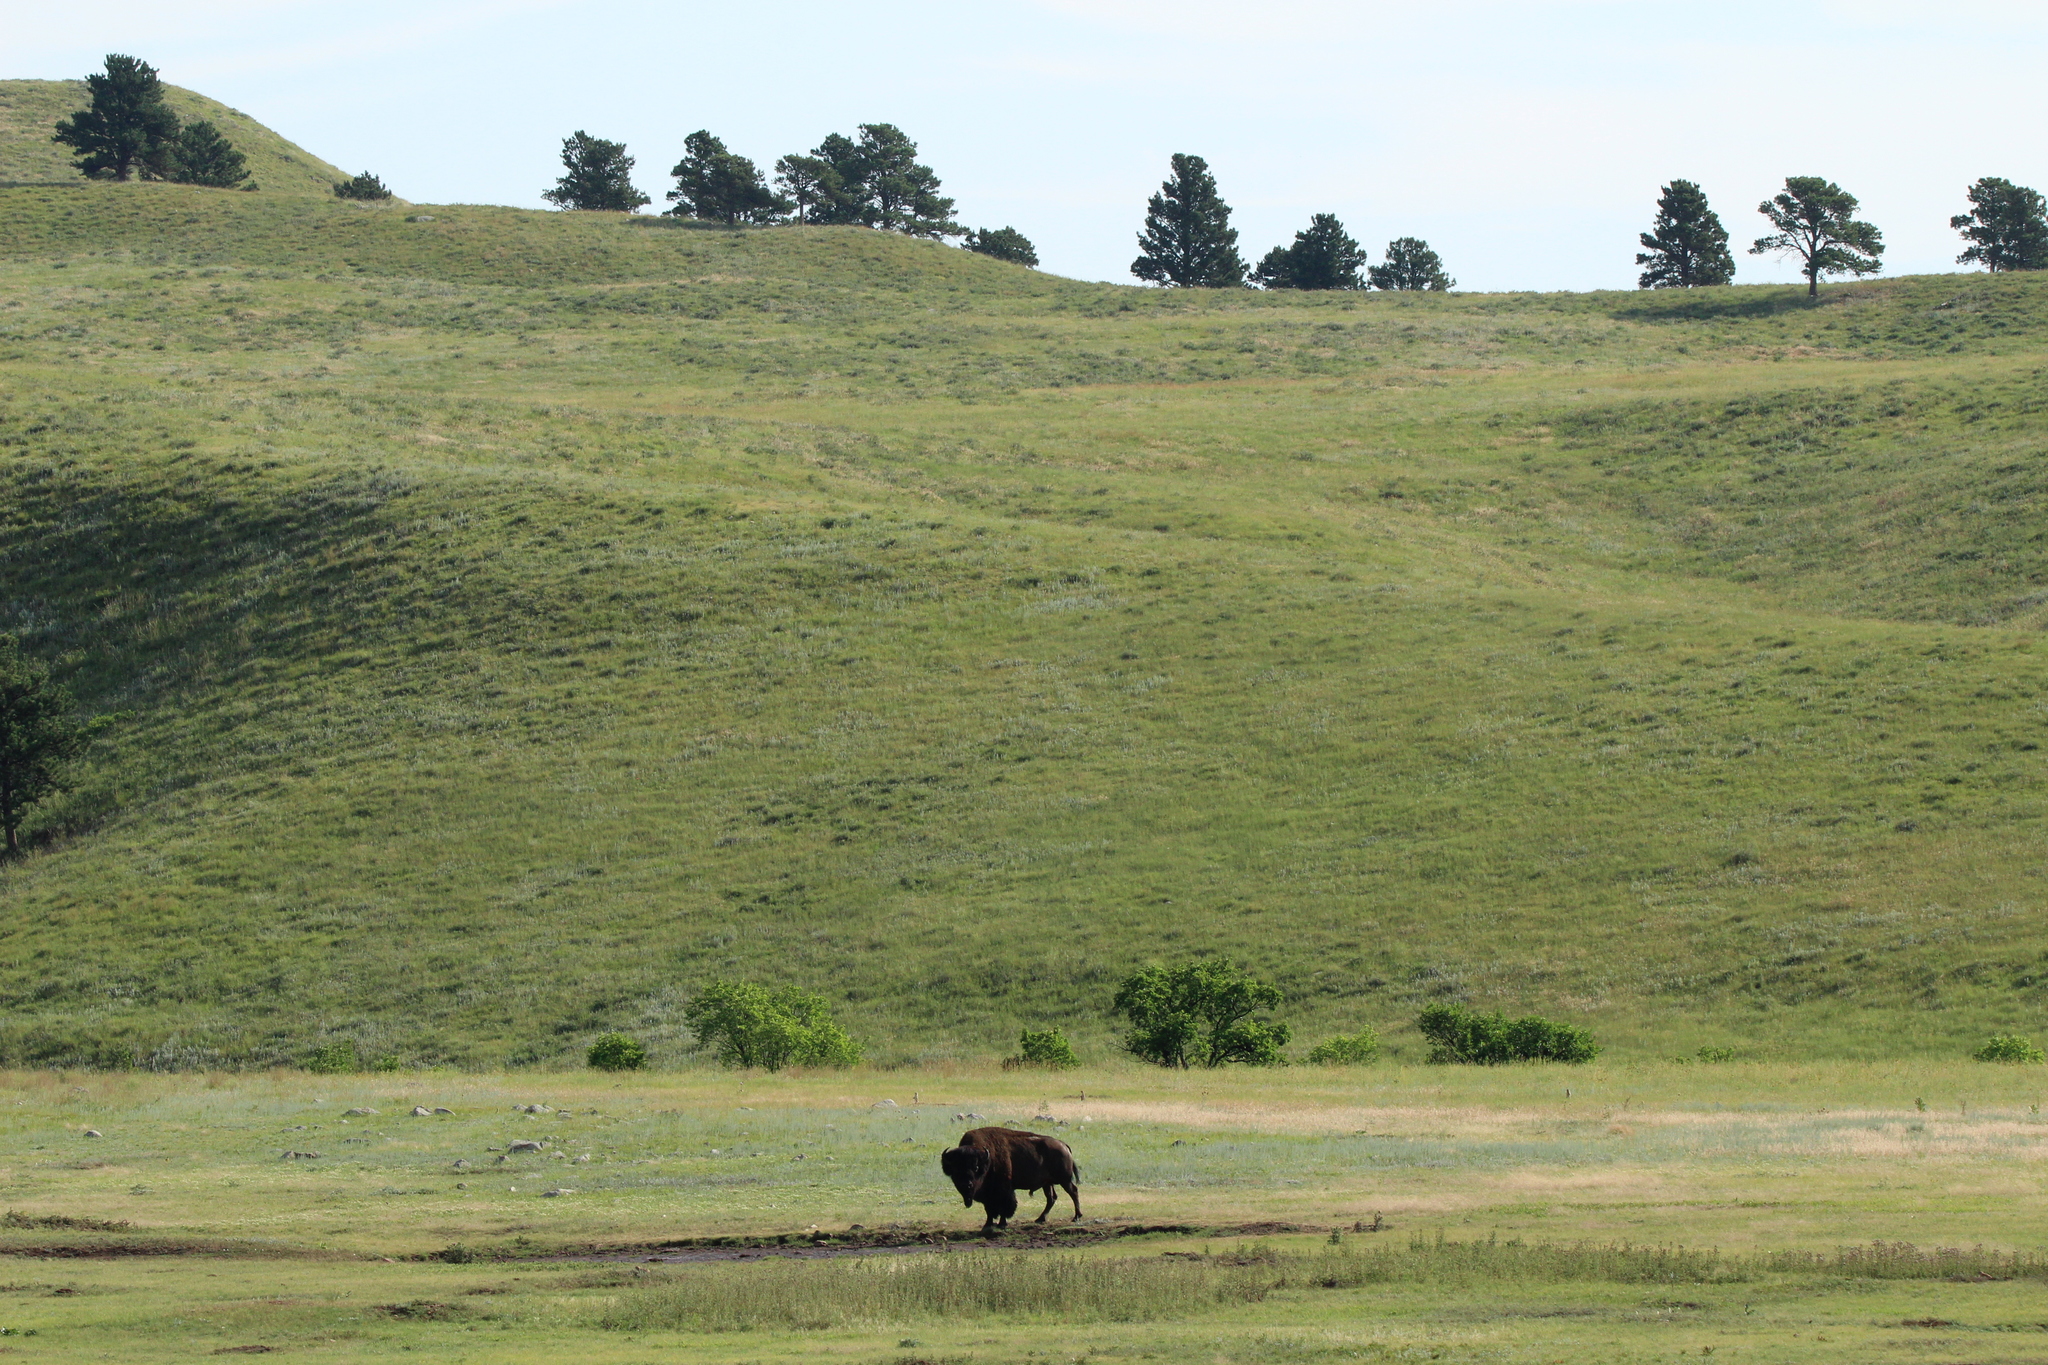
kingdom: Animalia
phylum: Chordata
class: Mammalia
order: Artiodactyla
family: Bovidae
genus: Bison
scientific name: Bison bison
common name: American bison
